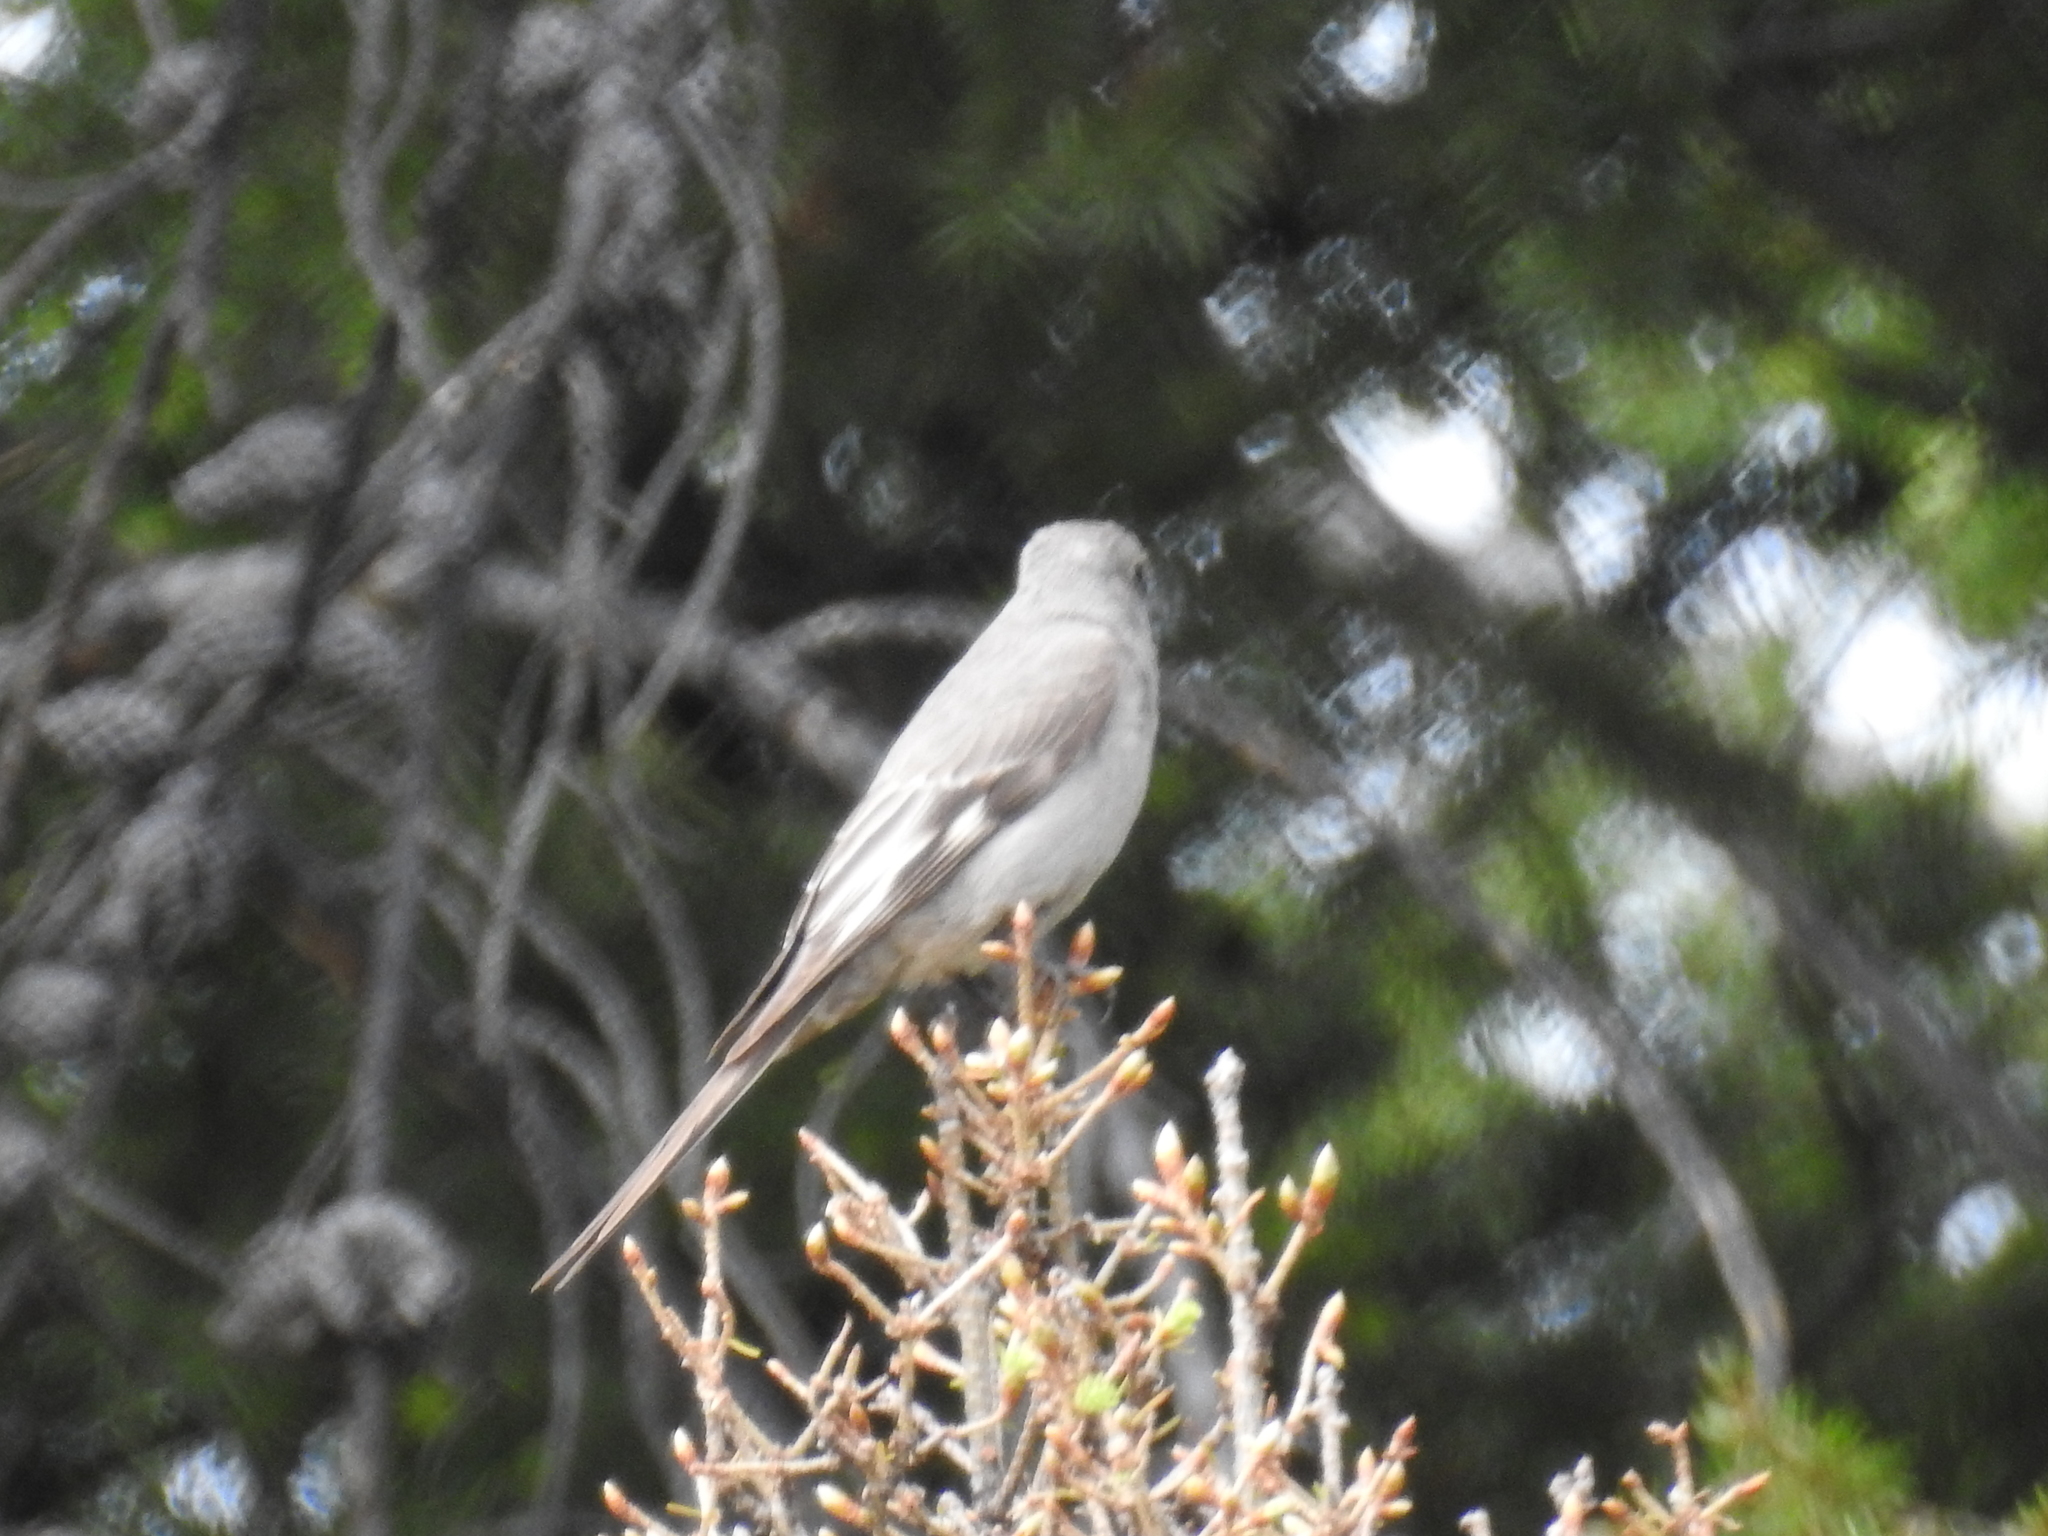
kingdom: Animalia
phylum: Chordata
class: Aves
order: Passeriformes
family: Turdidae
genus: Myadestes
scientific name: Myadestes townsendi
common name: Townsend's solitaire
